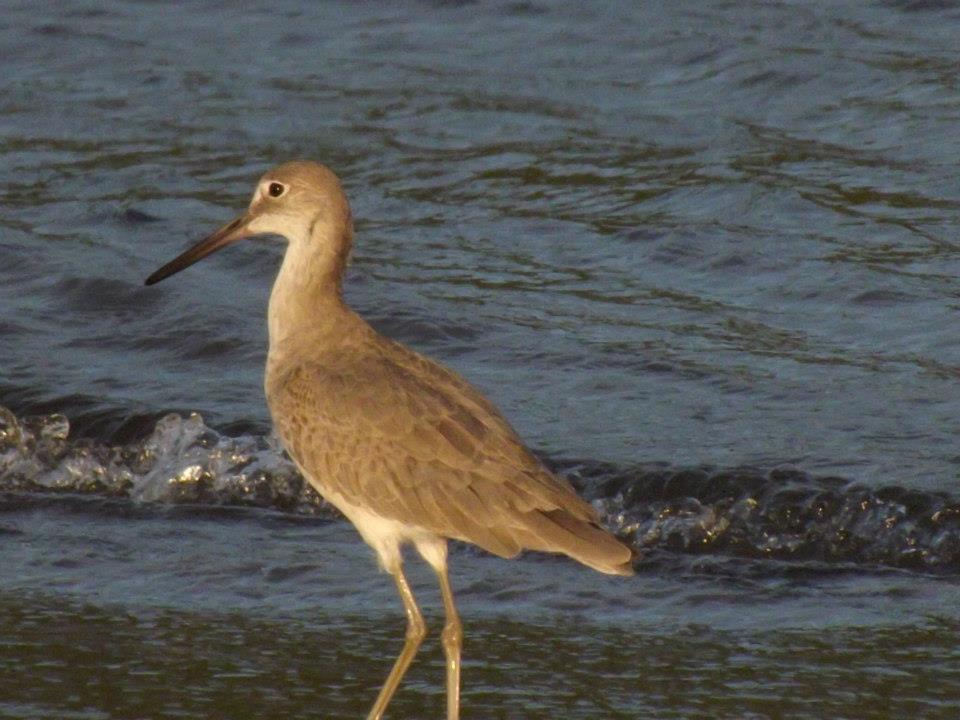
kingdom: Animalia
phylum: Chordata
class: Aves
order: Charadriiformes
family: Scolopacidae
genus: Tringa
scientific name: Tringa semipalmata
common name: Willet
